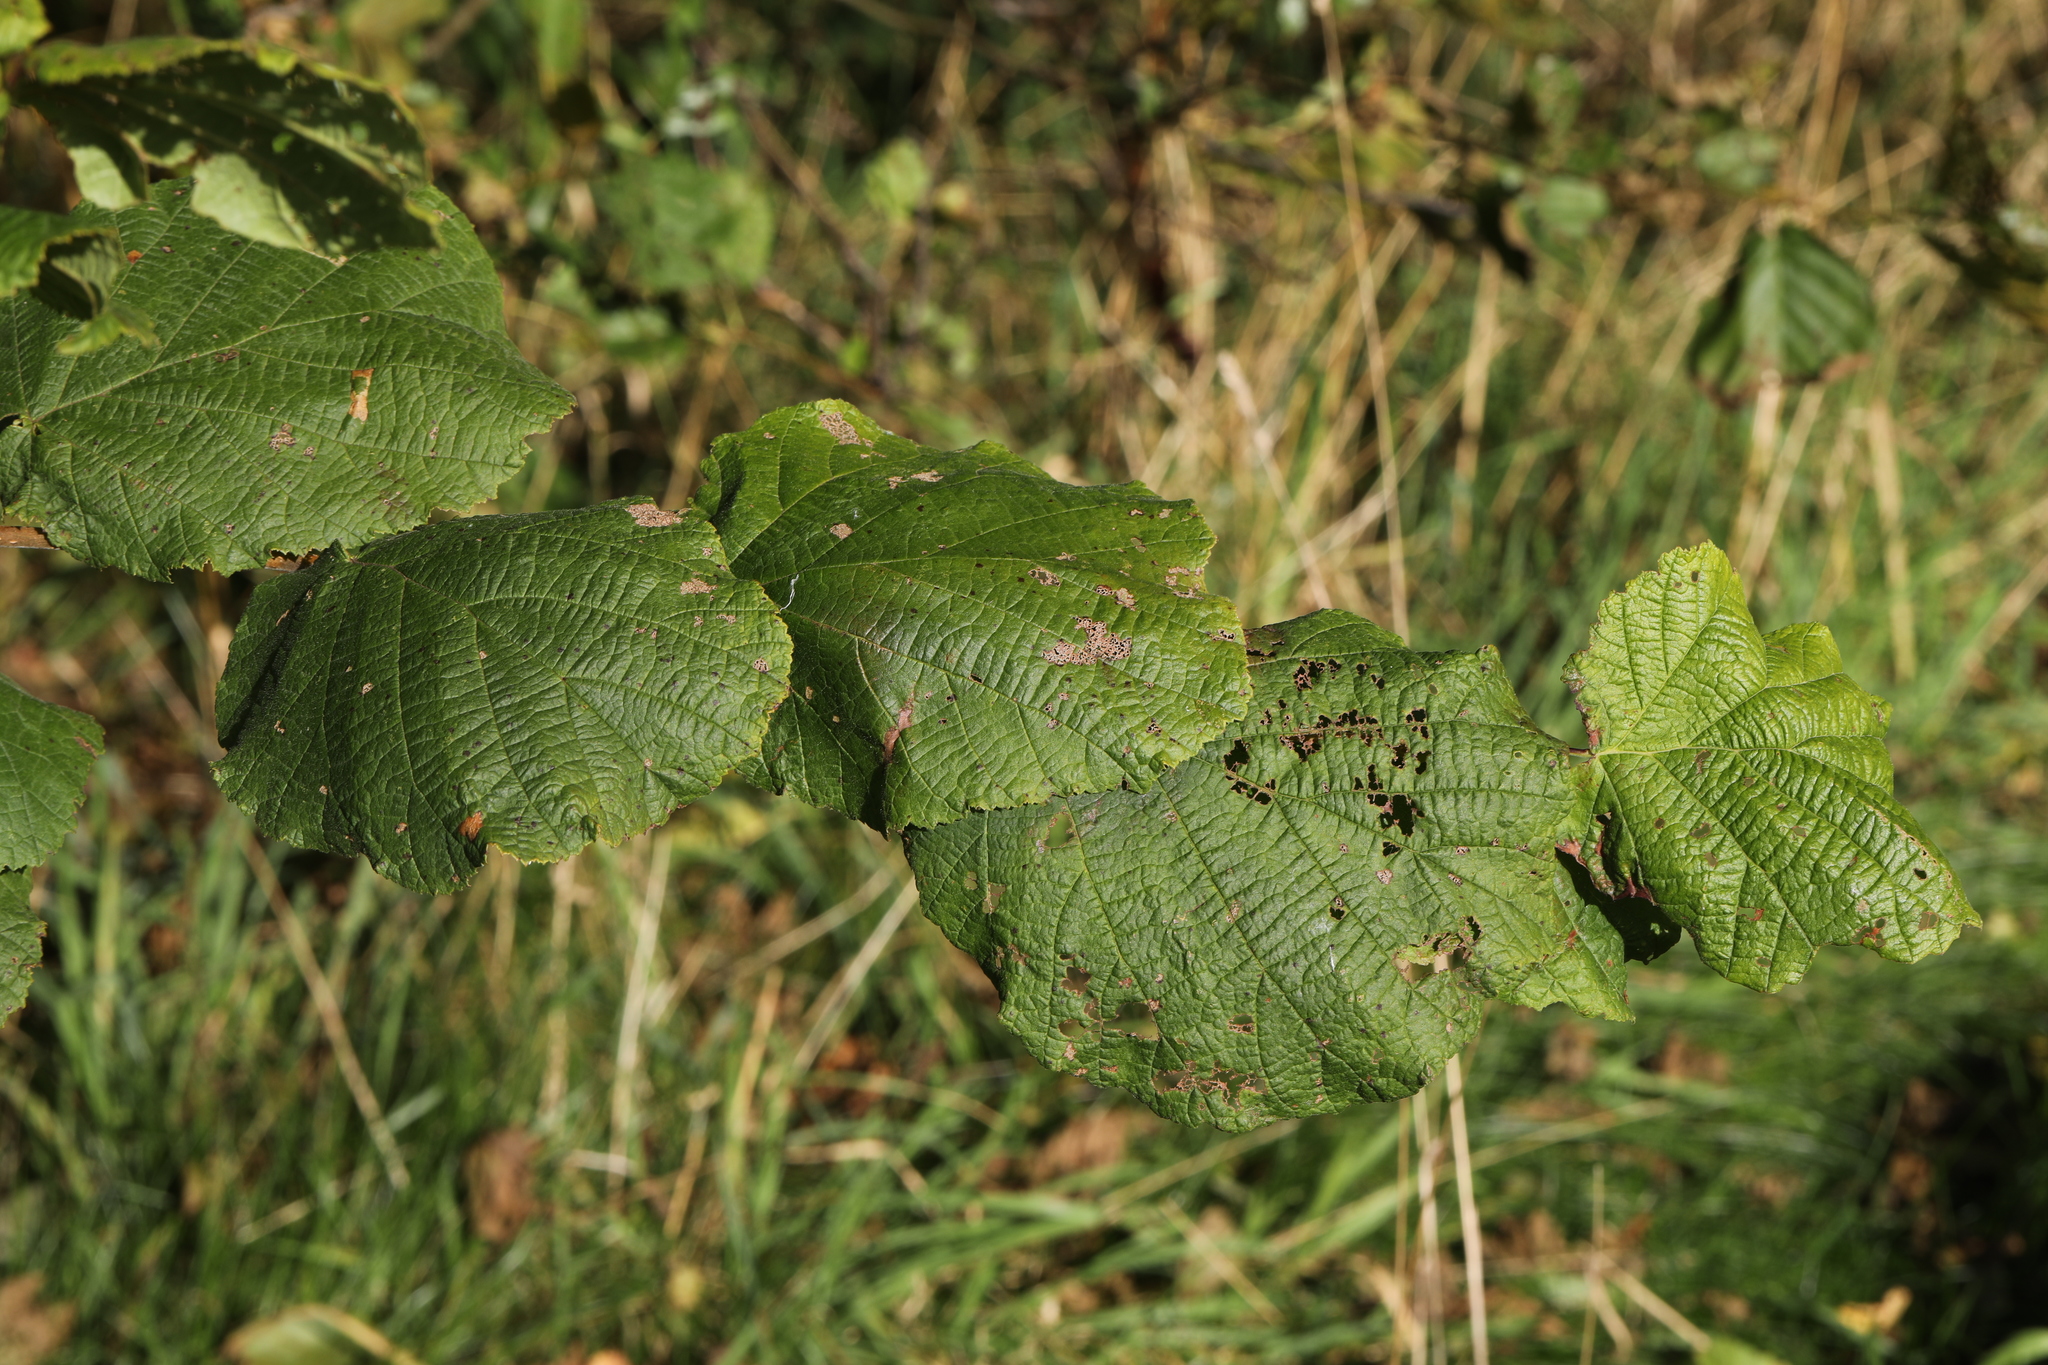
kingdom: Plantae
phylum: Tracheophyta
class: Magnoliopsida
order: Fagales
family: Betulaceae
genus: Corylus
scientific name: Corylus avellana
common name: European hazel
